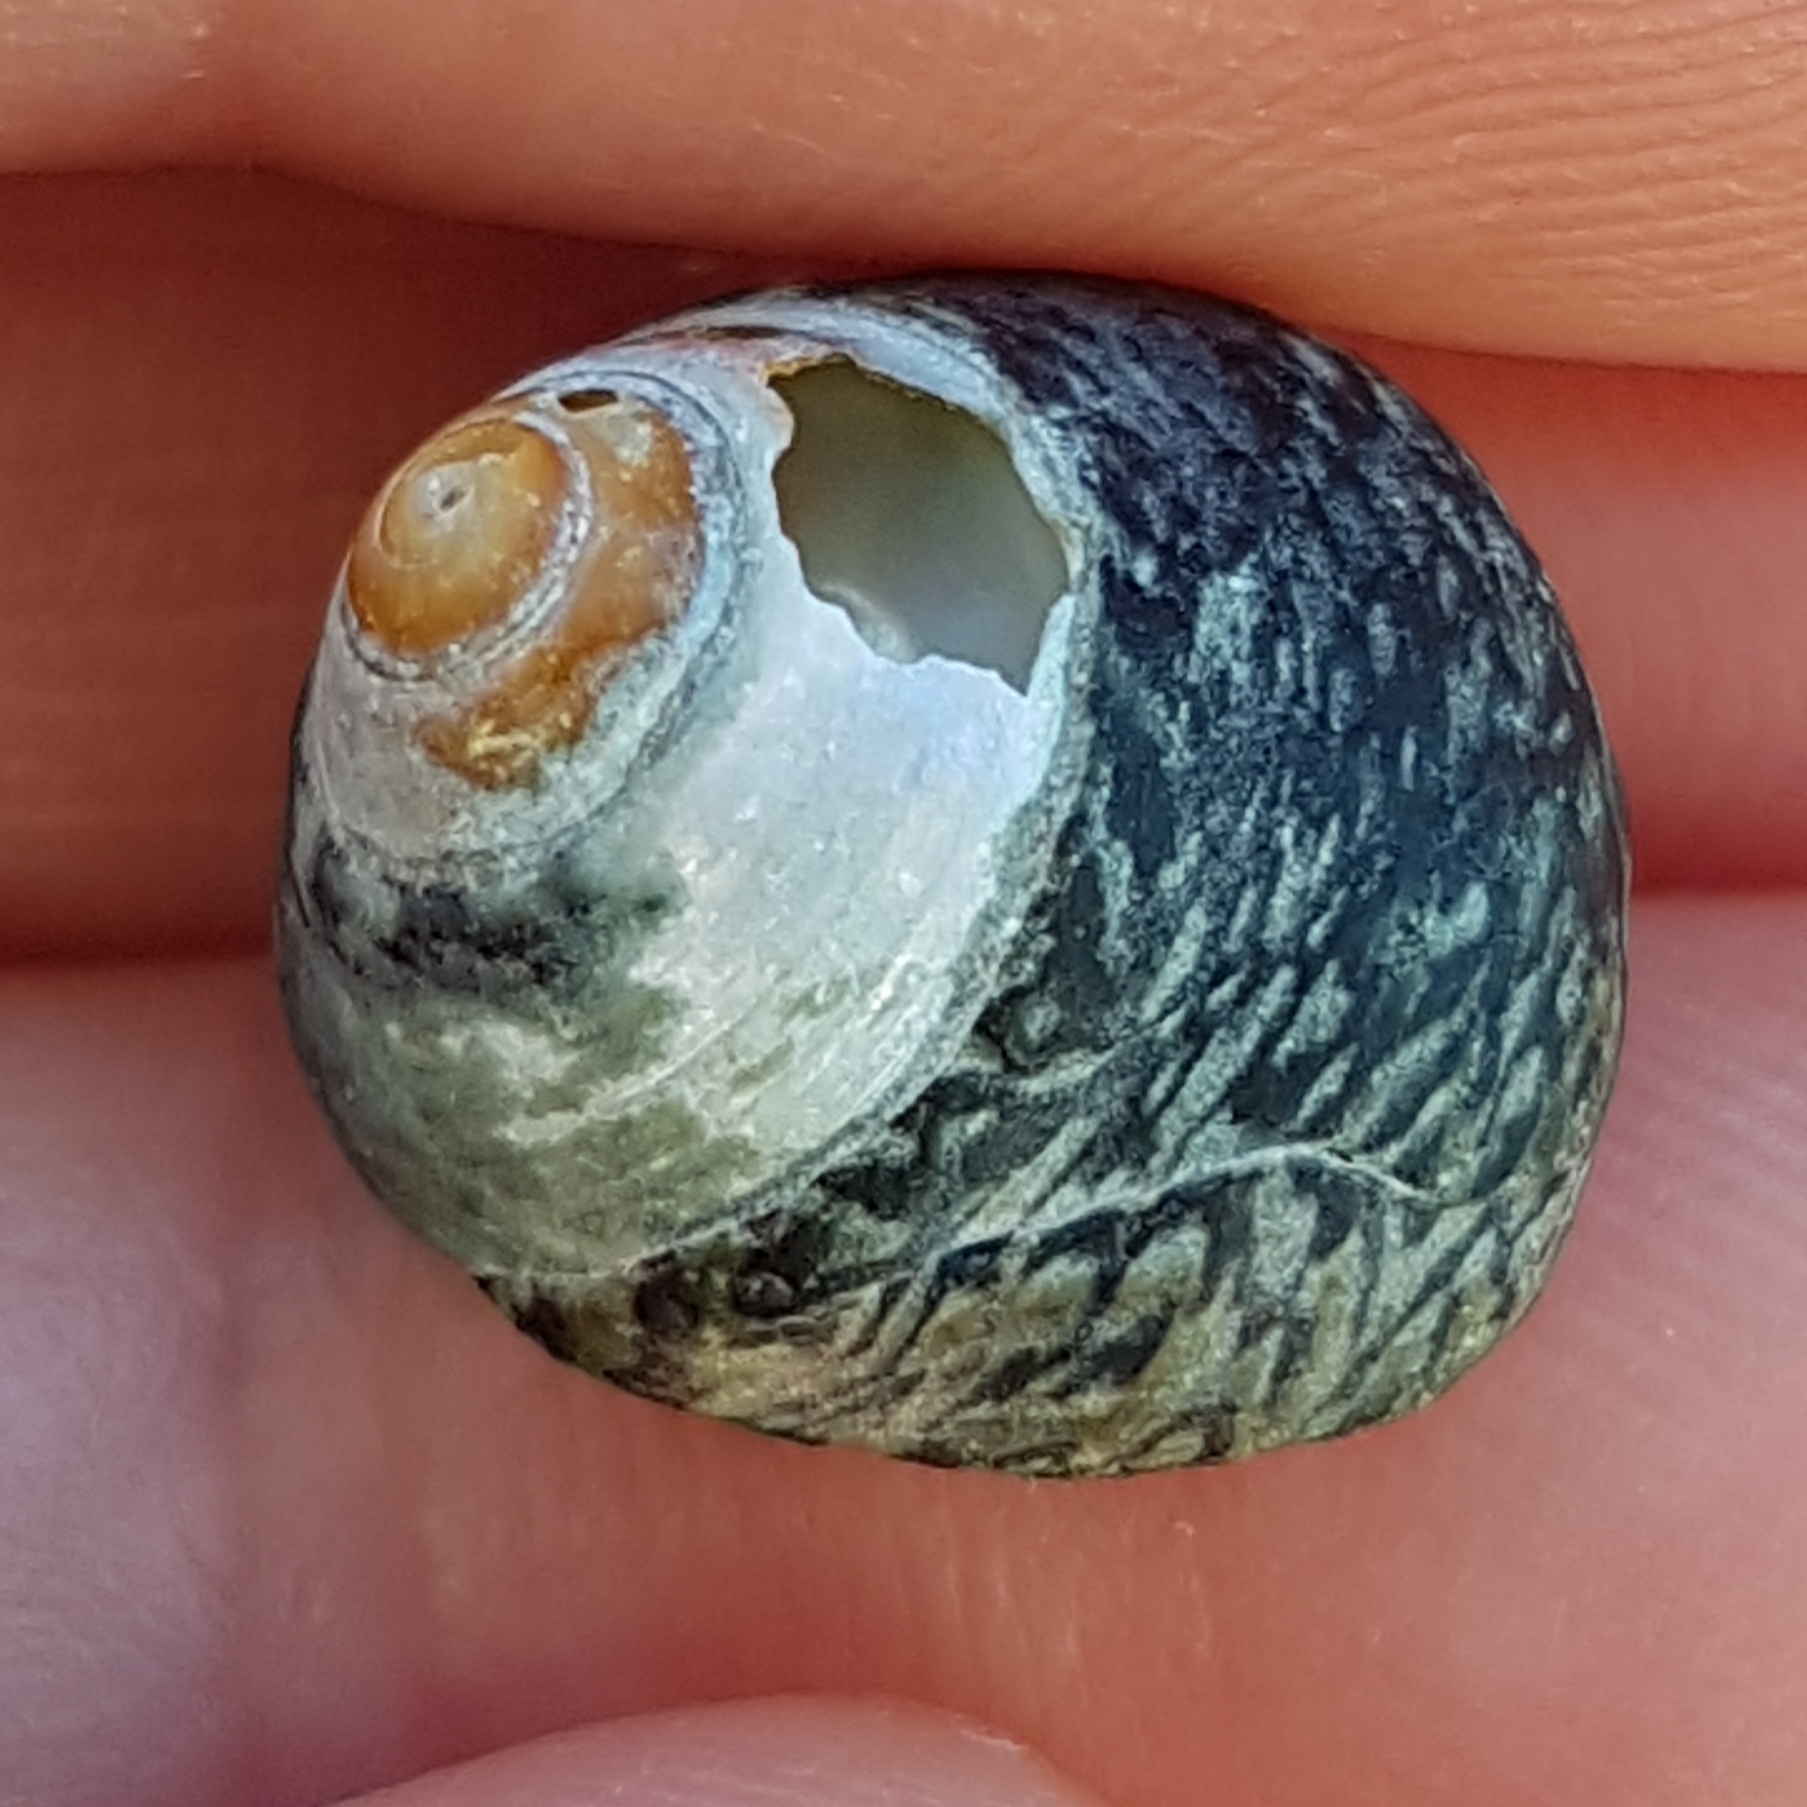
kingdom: Animalia
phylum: Mollusca
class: Gastropoda
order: Trochida
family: Trochidae
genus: Phorcus
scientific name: Phorcus lineatus
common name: Toothed top shell
